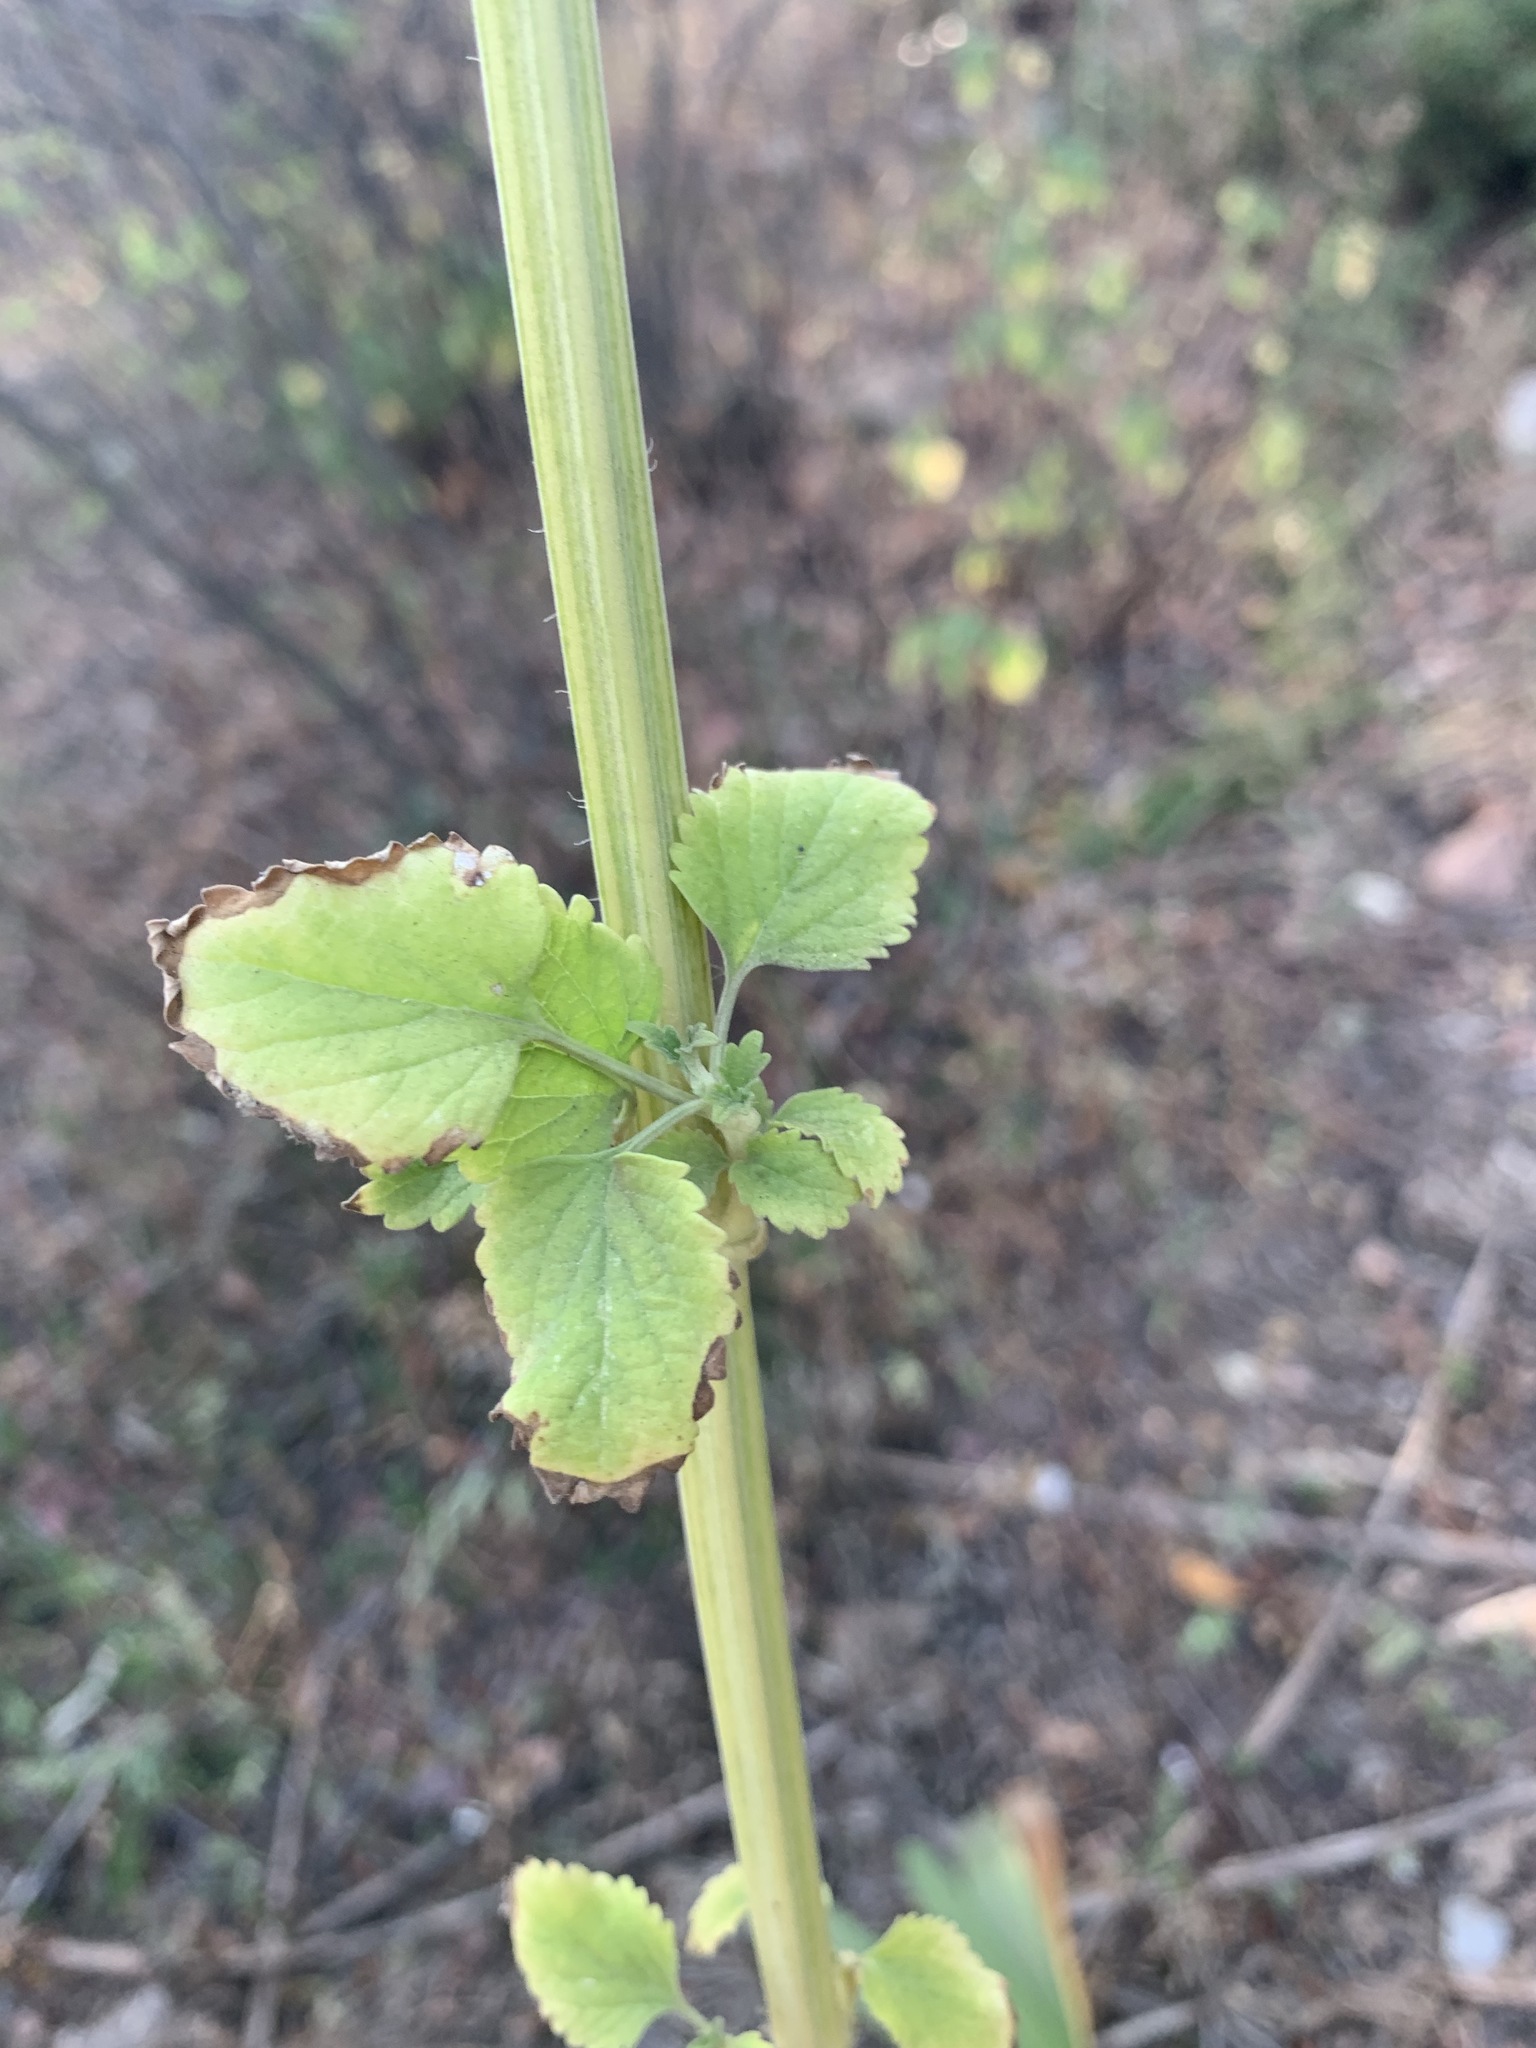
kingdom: Plantae
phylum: Tracheophyta
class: Magnoliopsida
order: Lamiales
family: Lamiaceae
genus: Leonotis
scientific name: Leonotis nepetifolia
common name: Christmas candlestick
